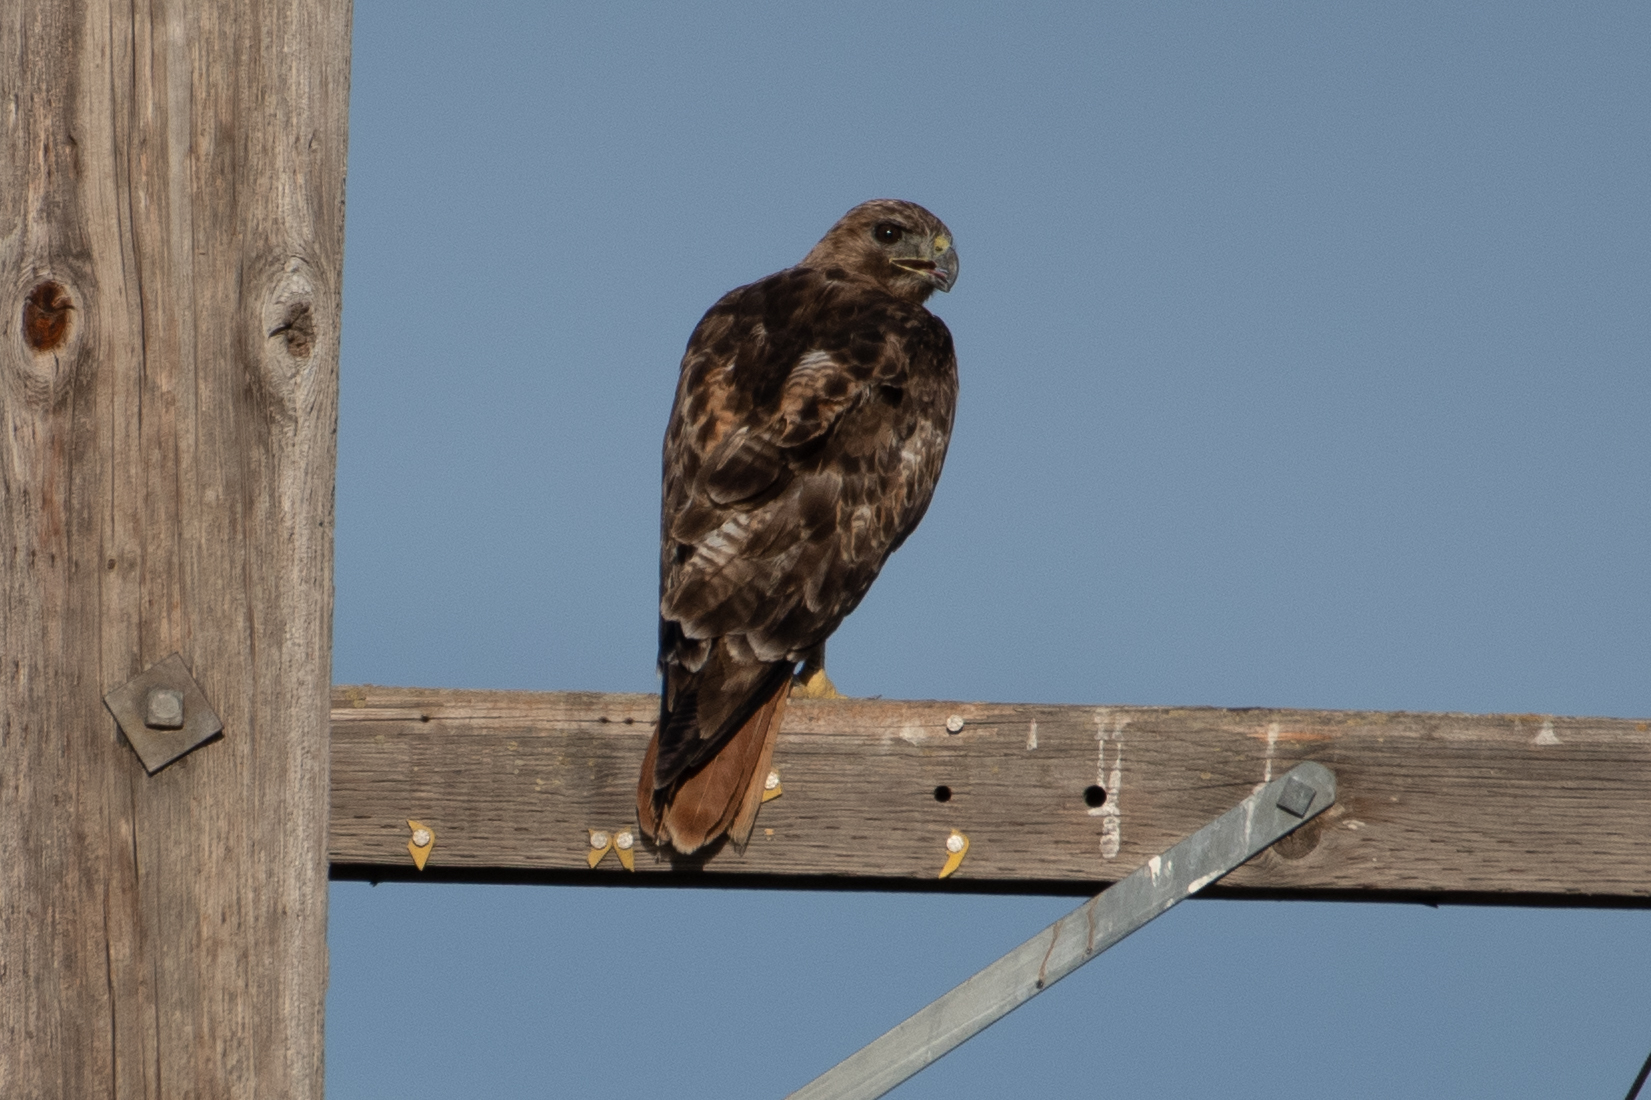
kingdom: Animalia
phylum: Chordata
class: Aves
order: Accipitriformes
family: Accipitridae
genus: Buteo
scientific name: Buteo jamaicensis
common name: Red-tailed hawk
